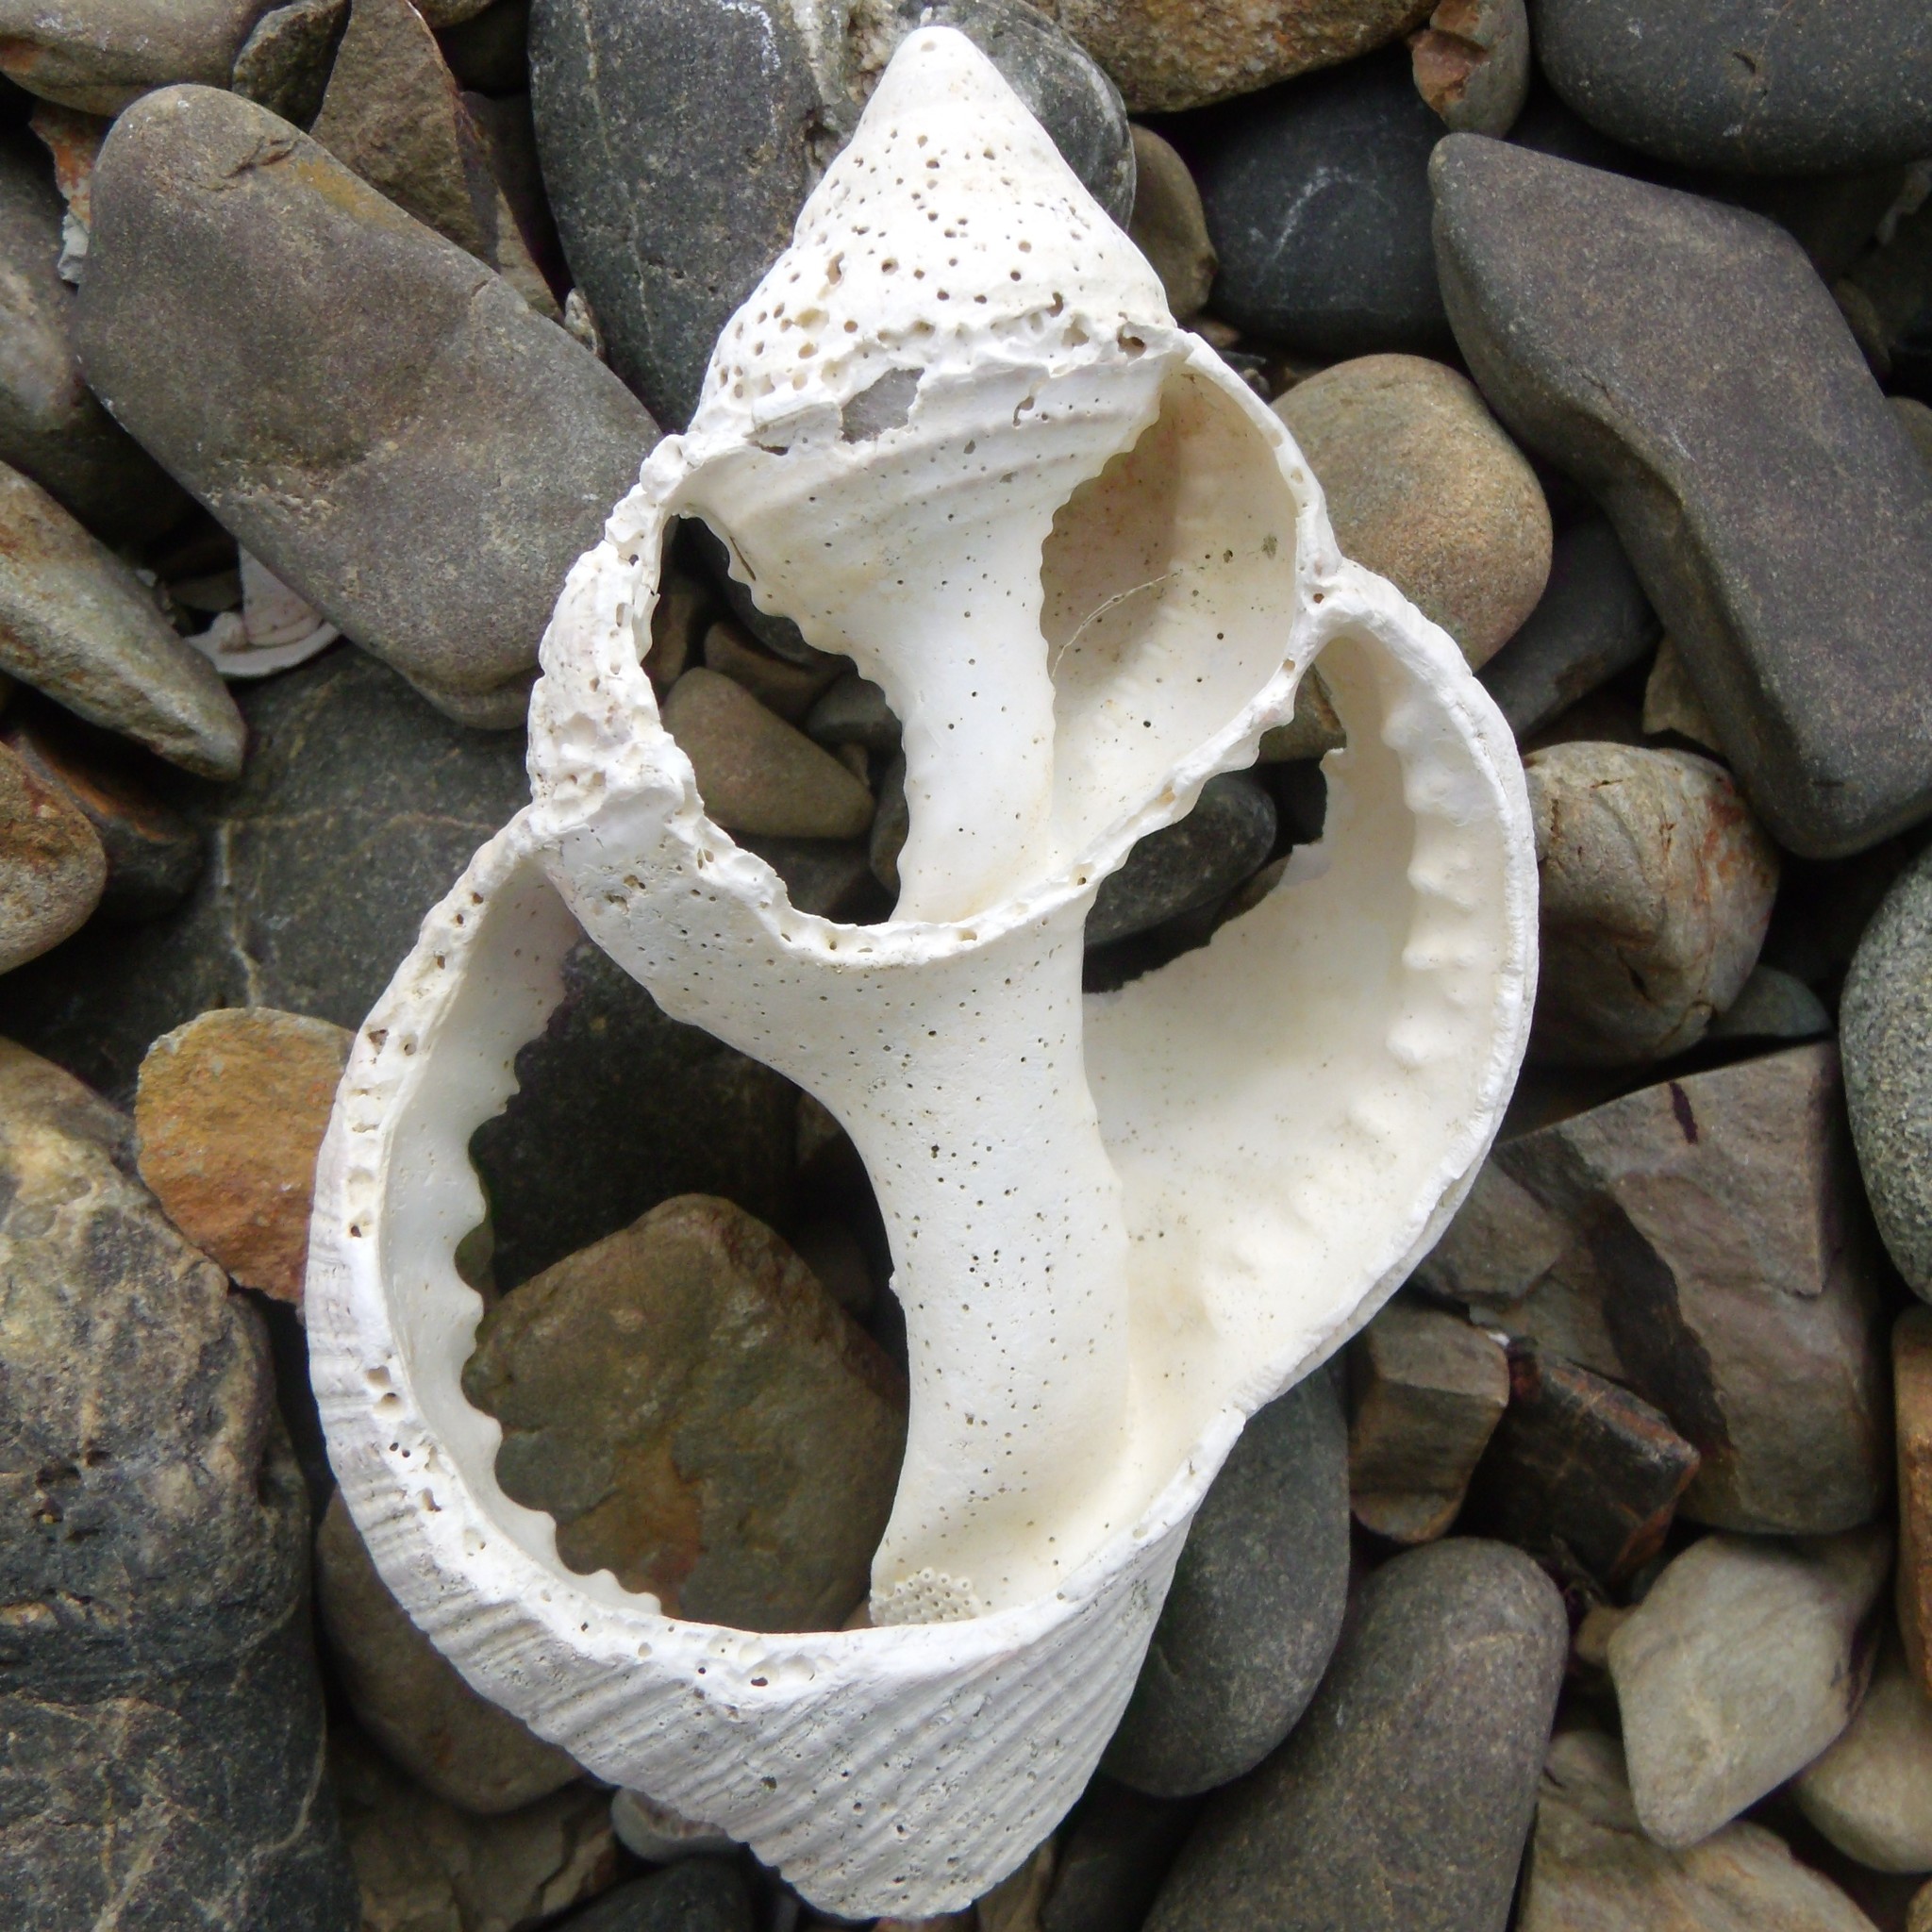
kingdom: Animalia
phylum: Mollusca
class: Gastropoda
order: Littorinimorpha
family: Cymatiidae
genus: Argobuccinum
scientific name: Argobuccinum pustulosum
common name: Pustular triton
